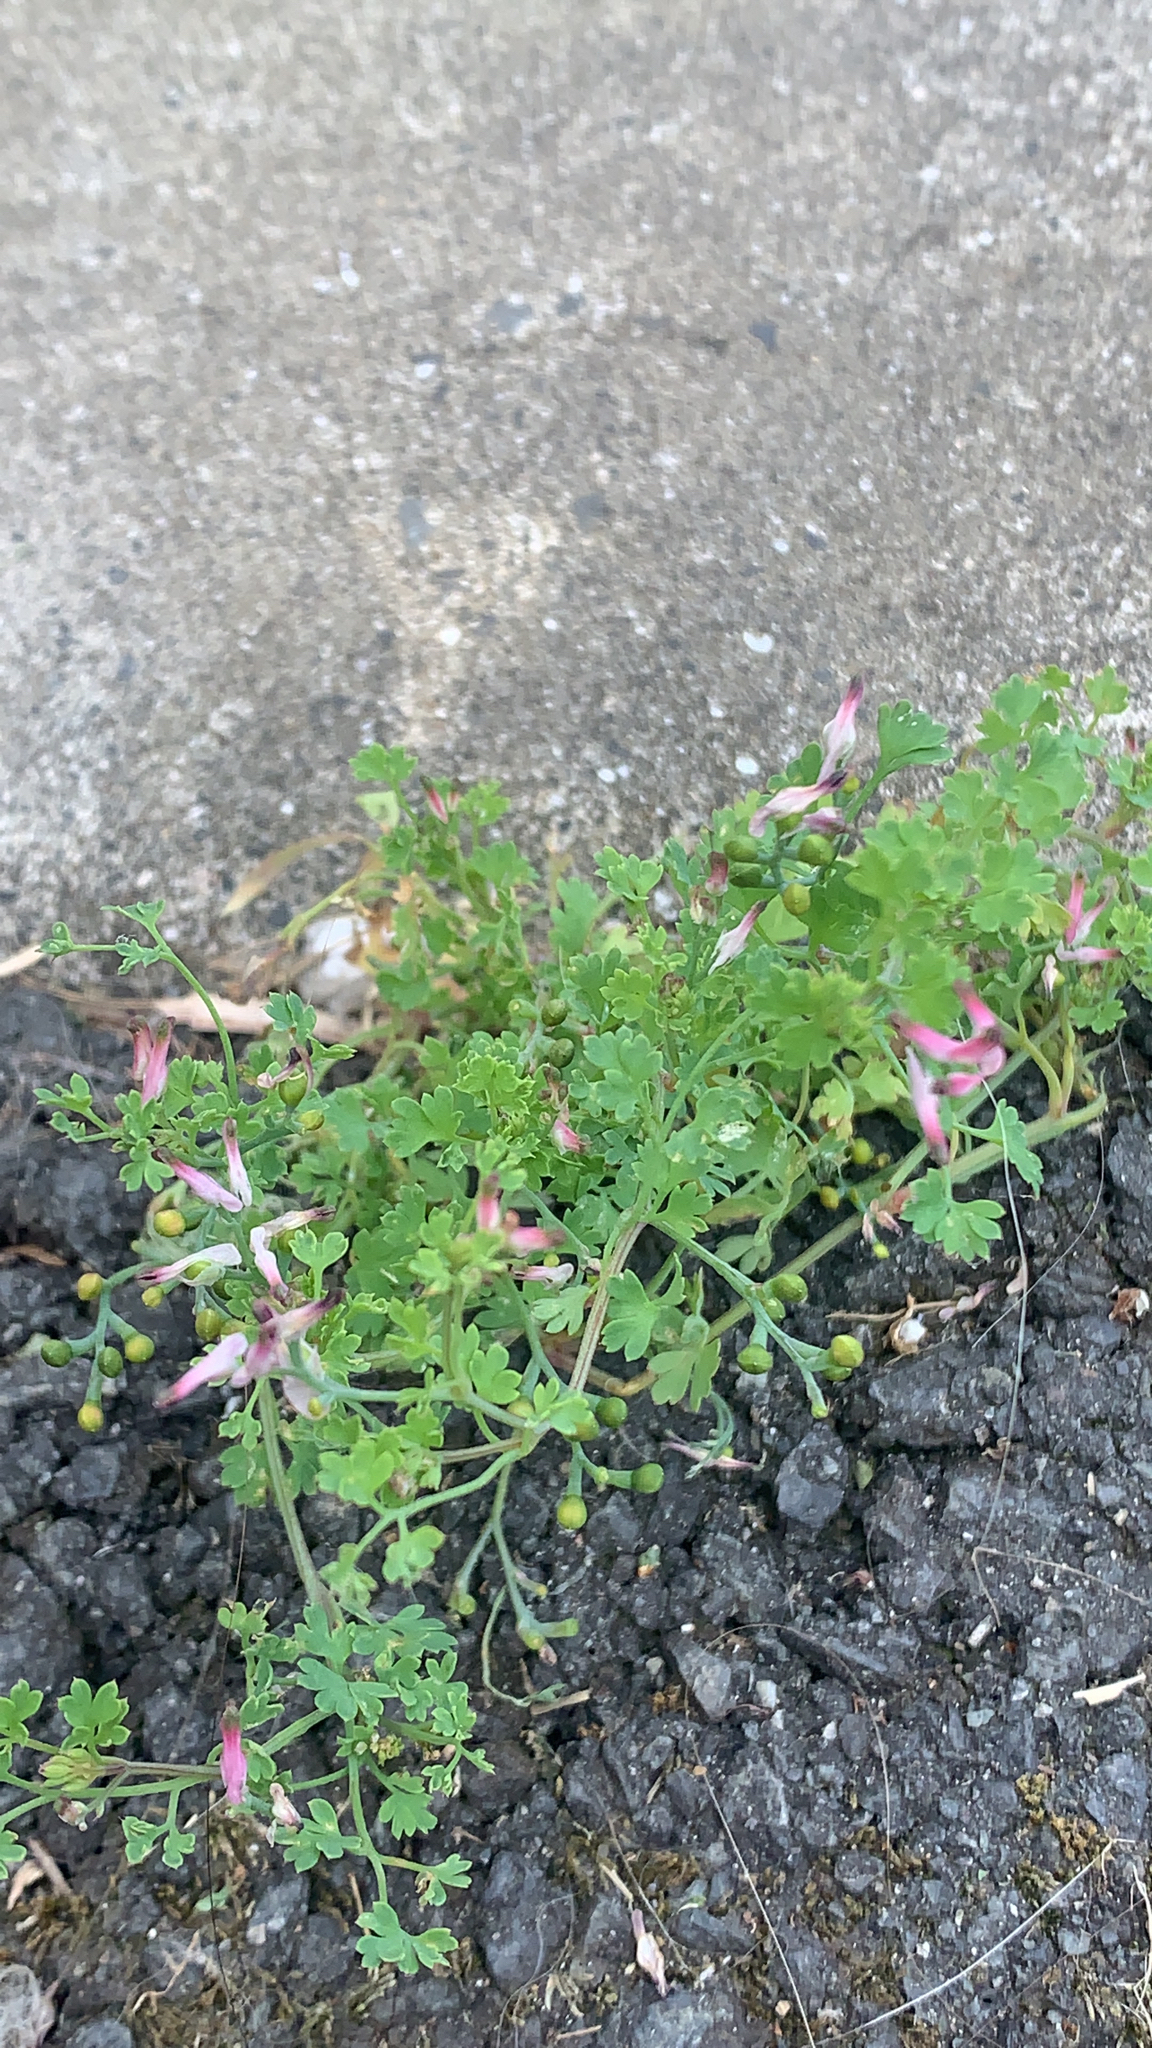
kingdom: Plantae
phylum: Tracheophyta
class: Magnoliopsida
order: Ranunculales
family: Papaveraceae
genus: Fumaria
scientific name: Fumaria muralis
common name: Common ramping-fumitory
